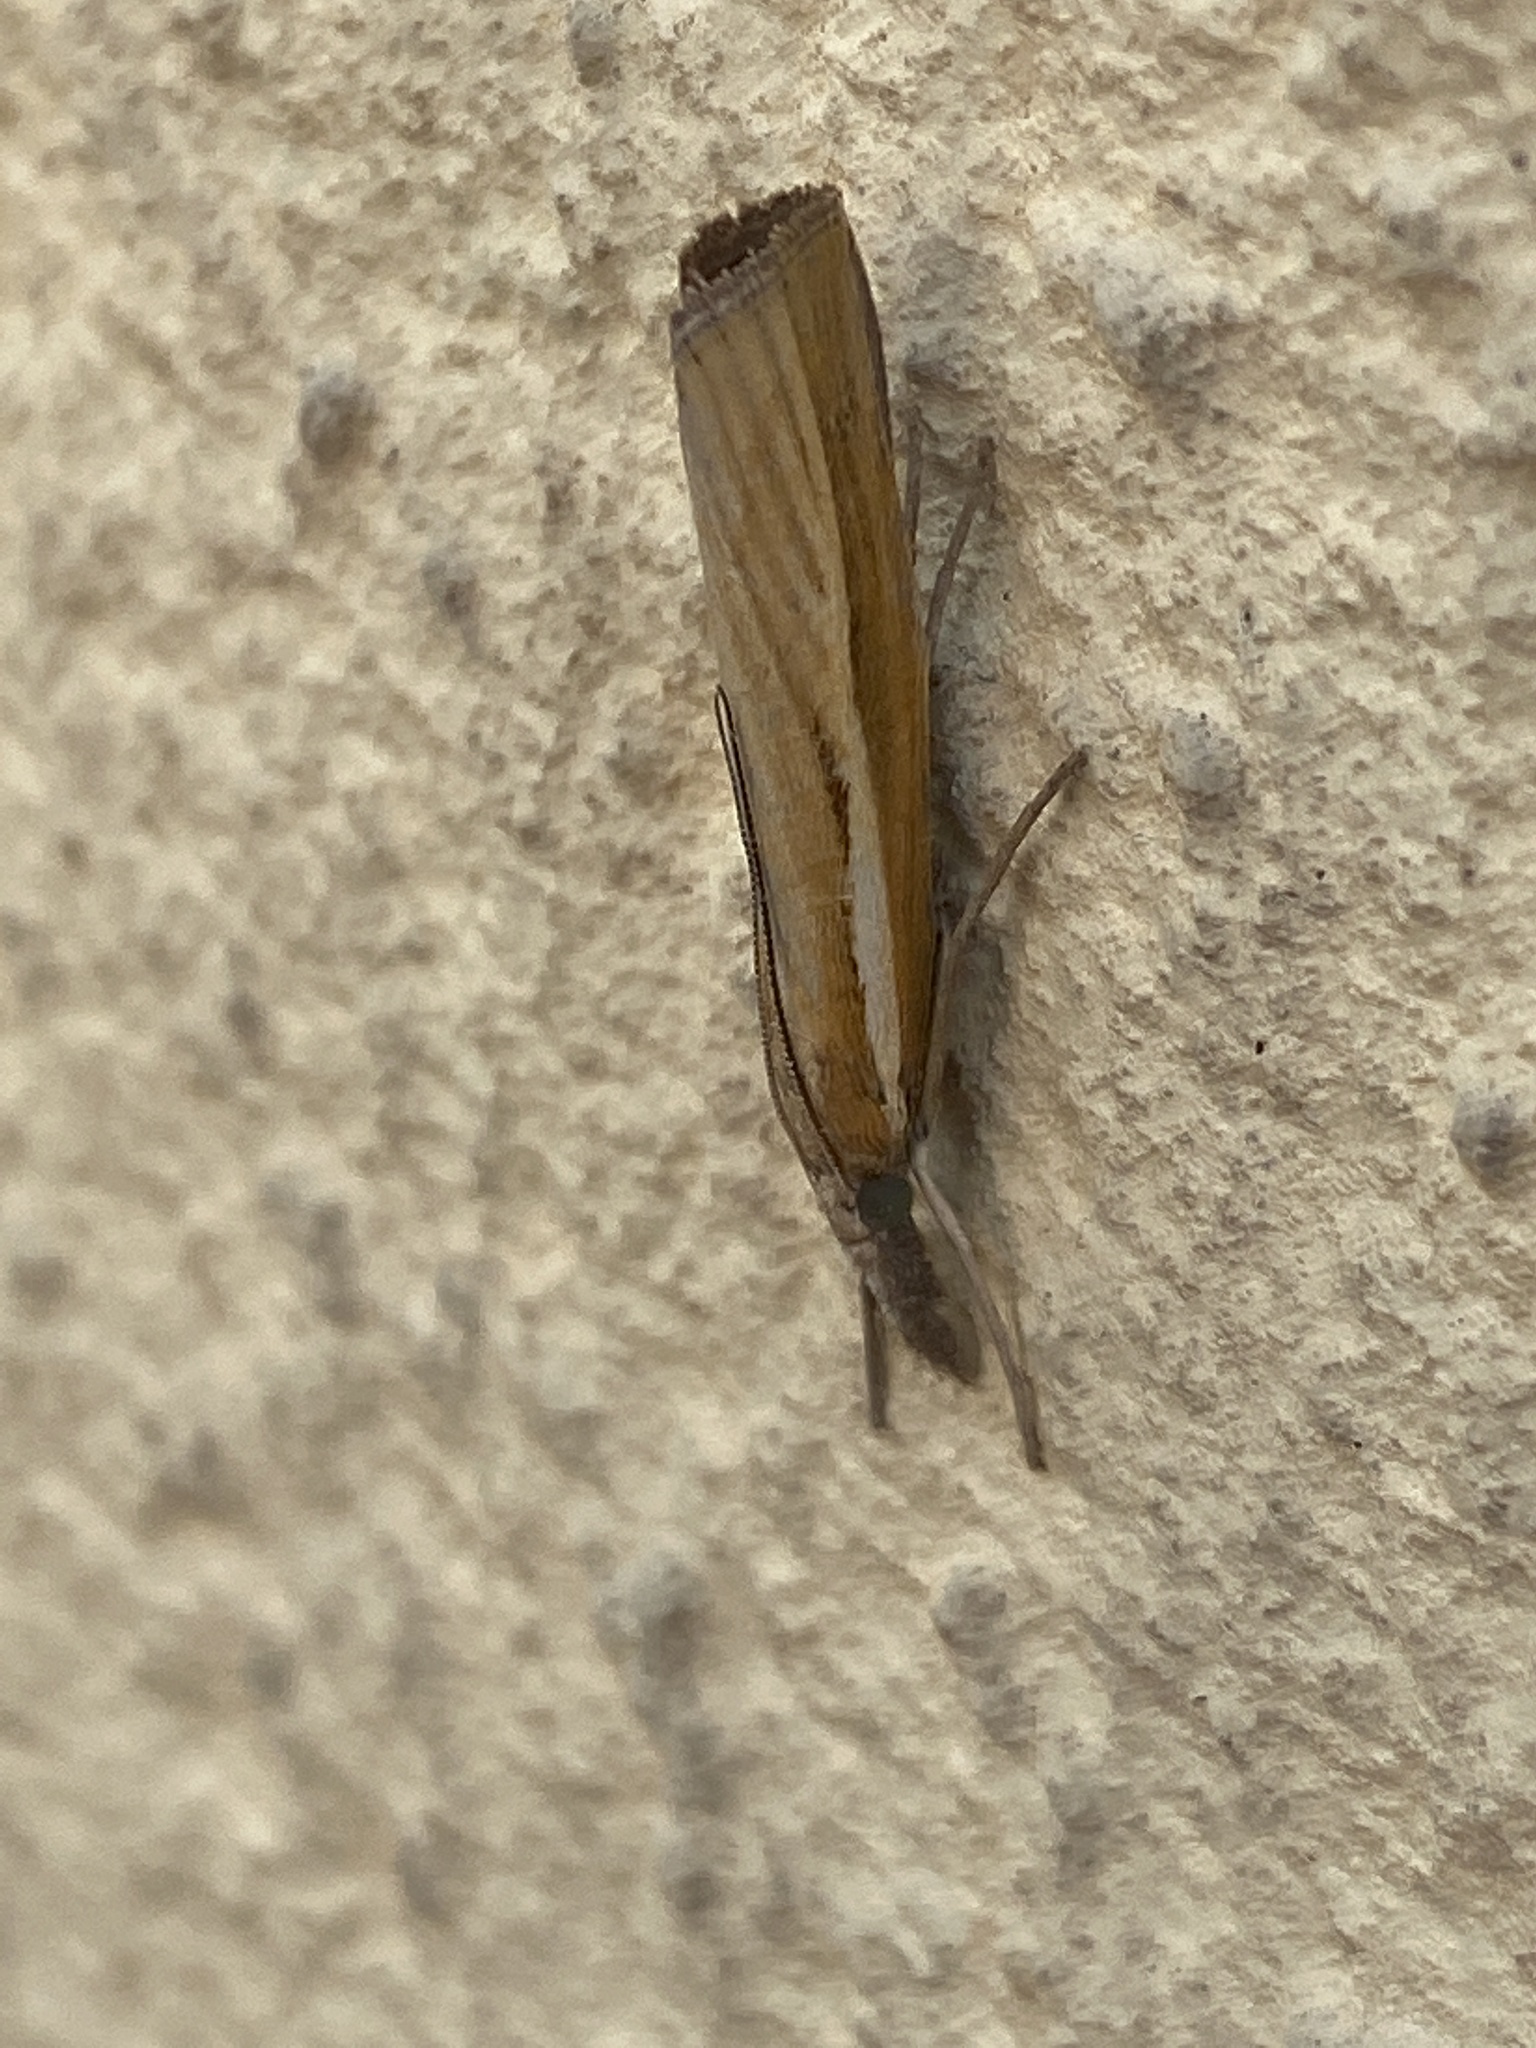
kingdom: Animalia
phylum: Arthropoda
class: Insecta
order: Lepidoptera
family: Crambidae
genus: Agriphila
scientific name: Agriphila tristellus
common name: Common grass-veneer
